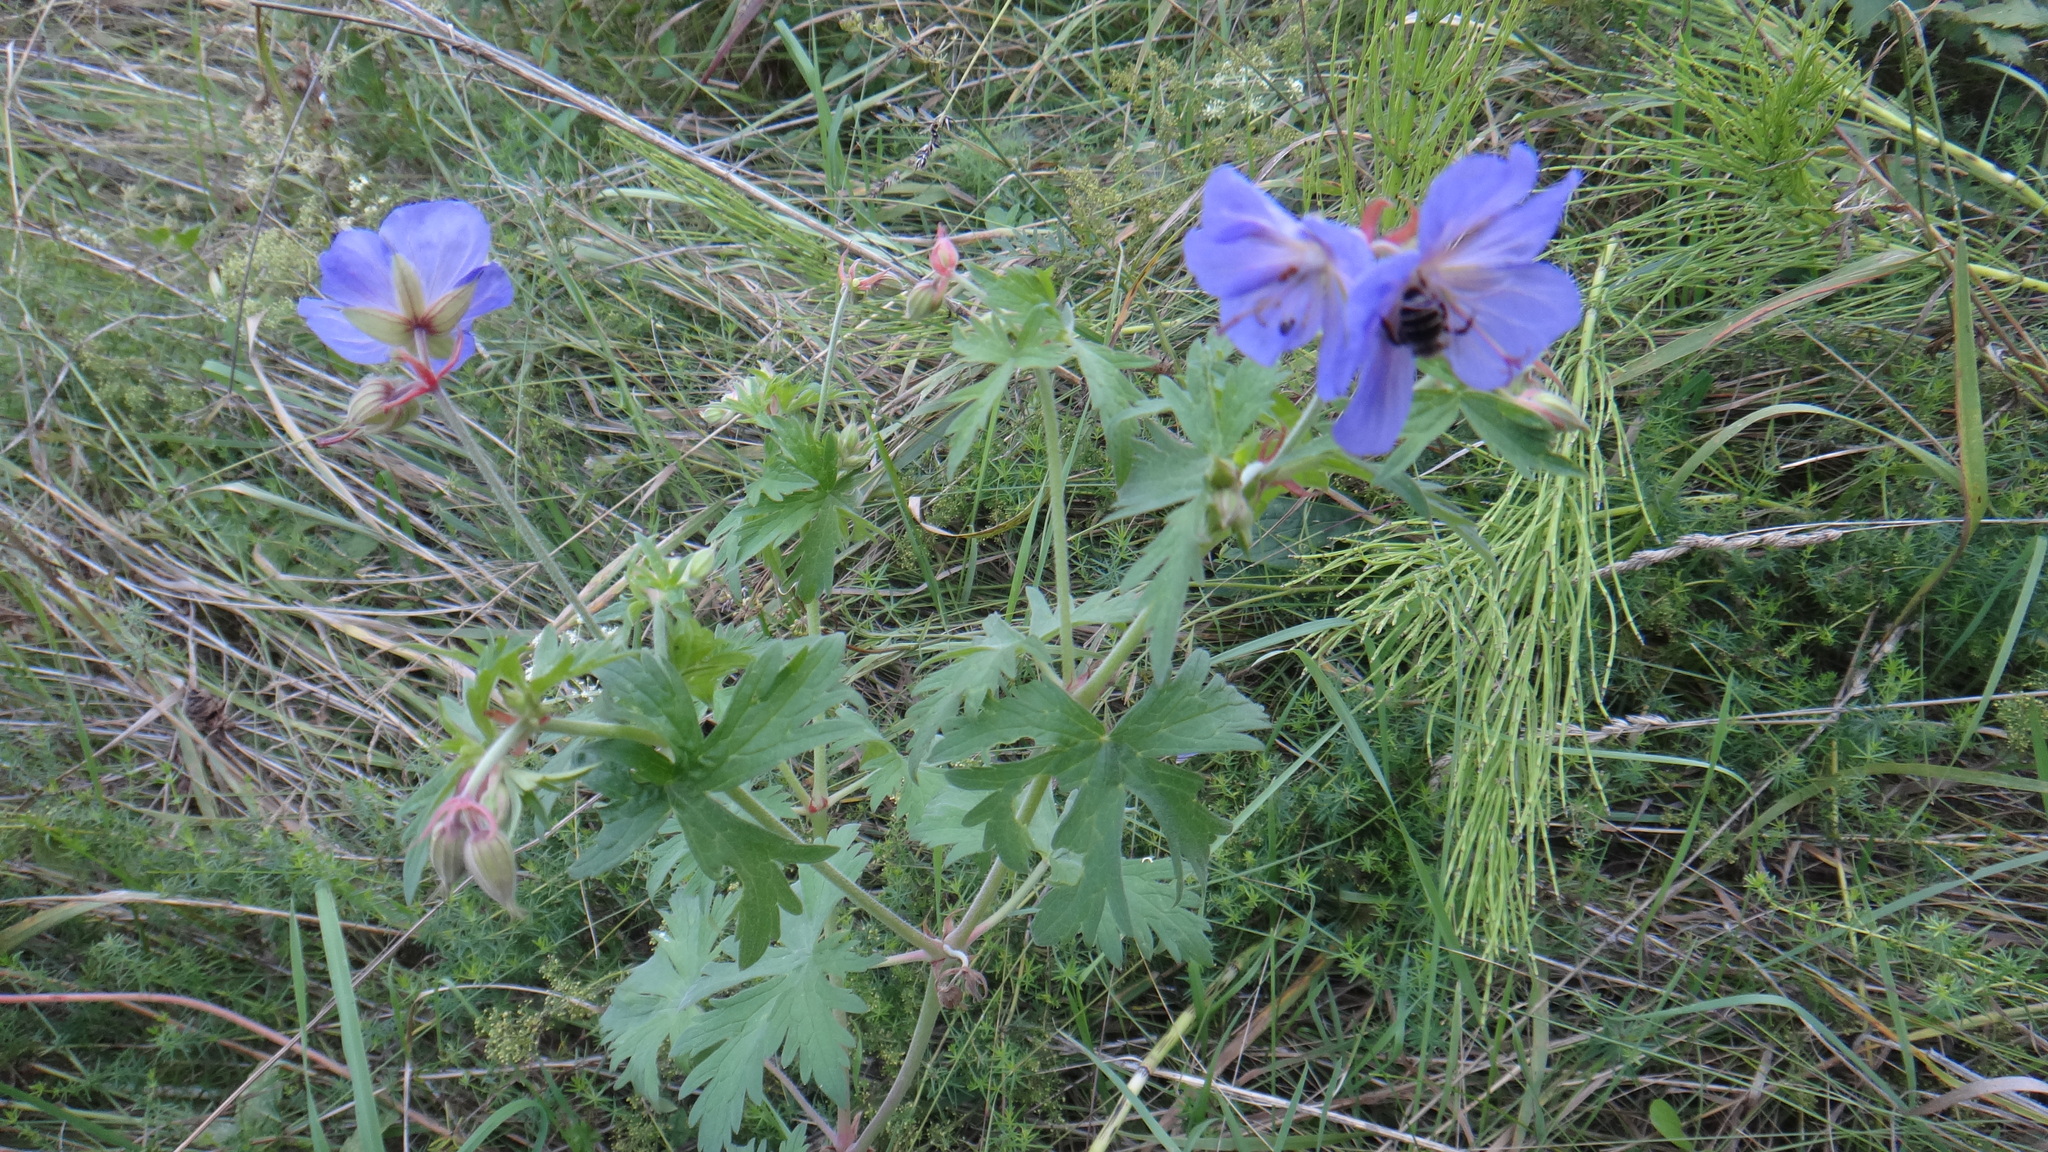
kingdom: Plantae
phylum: Tracheophyta
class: Magnoliopsida
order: Geraniales
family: Geraniaceae
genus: Geranium
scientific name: Geranium pratense
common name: Meadow crane's-bill
